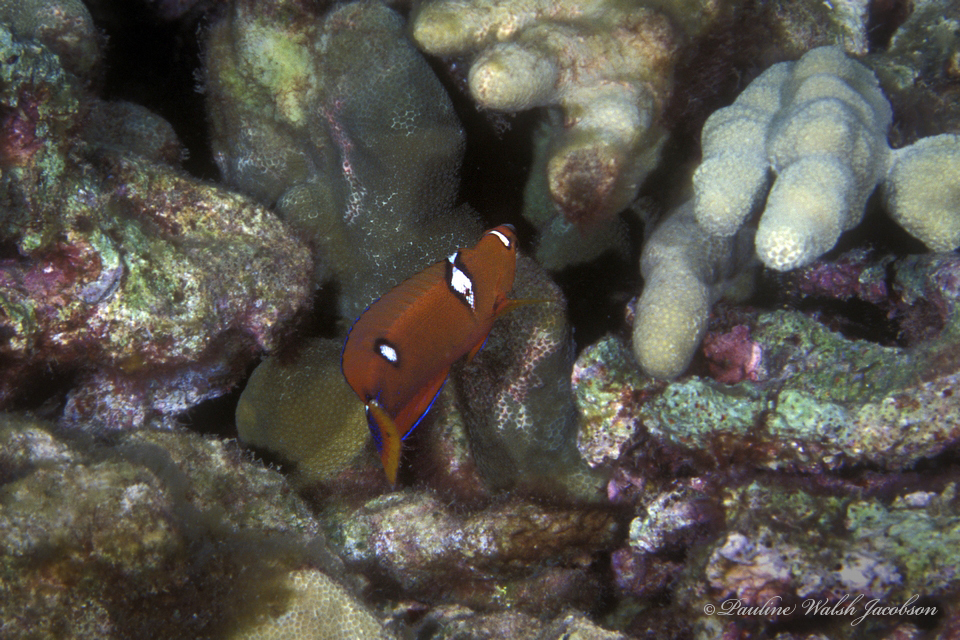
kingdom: Animalia
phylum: Chordata
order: Perciformes
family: Labridae
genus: Coris
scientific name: Coris gaimard
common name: Yellowtail coris
